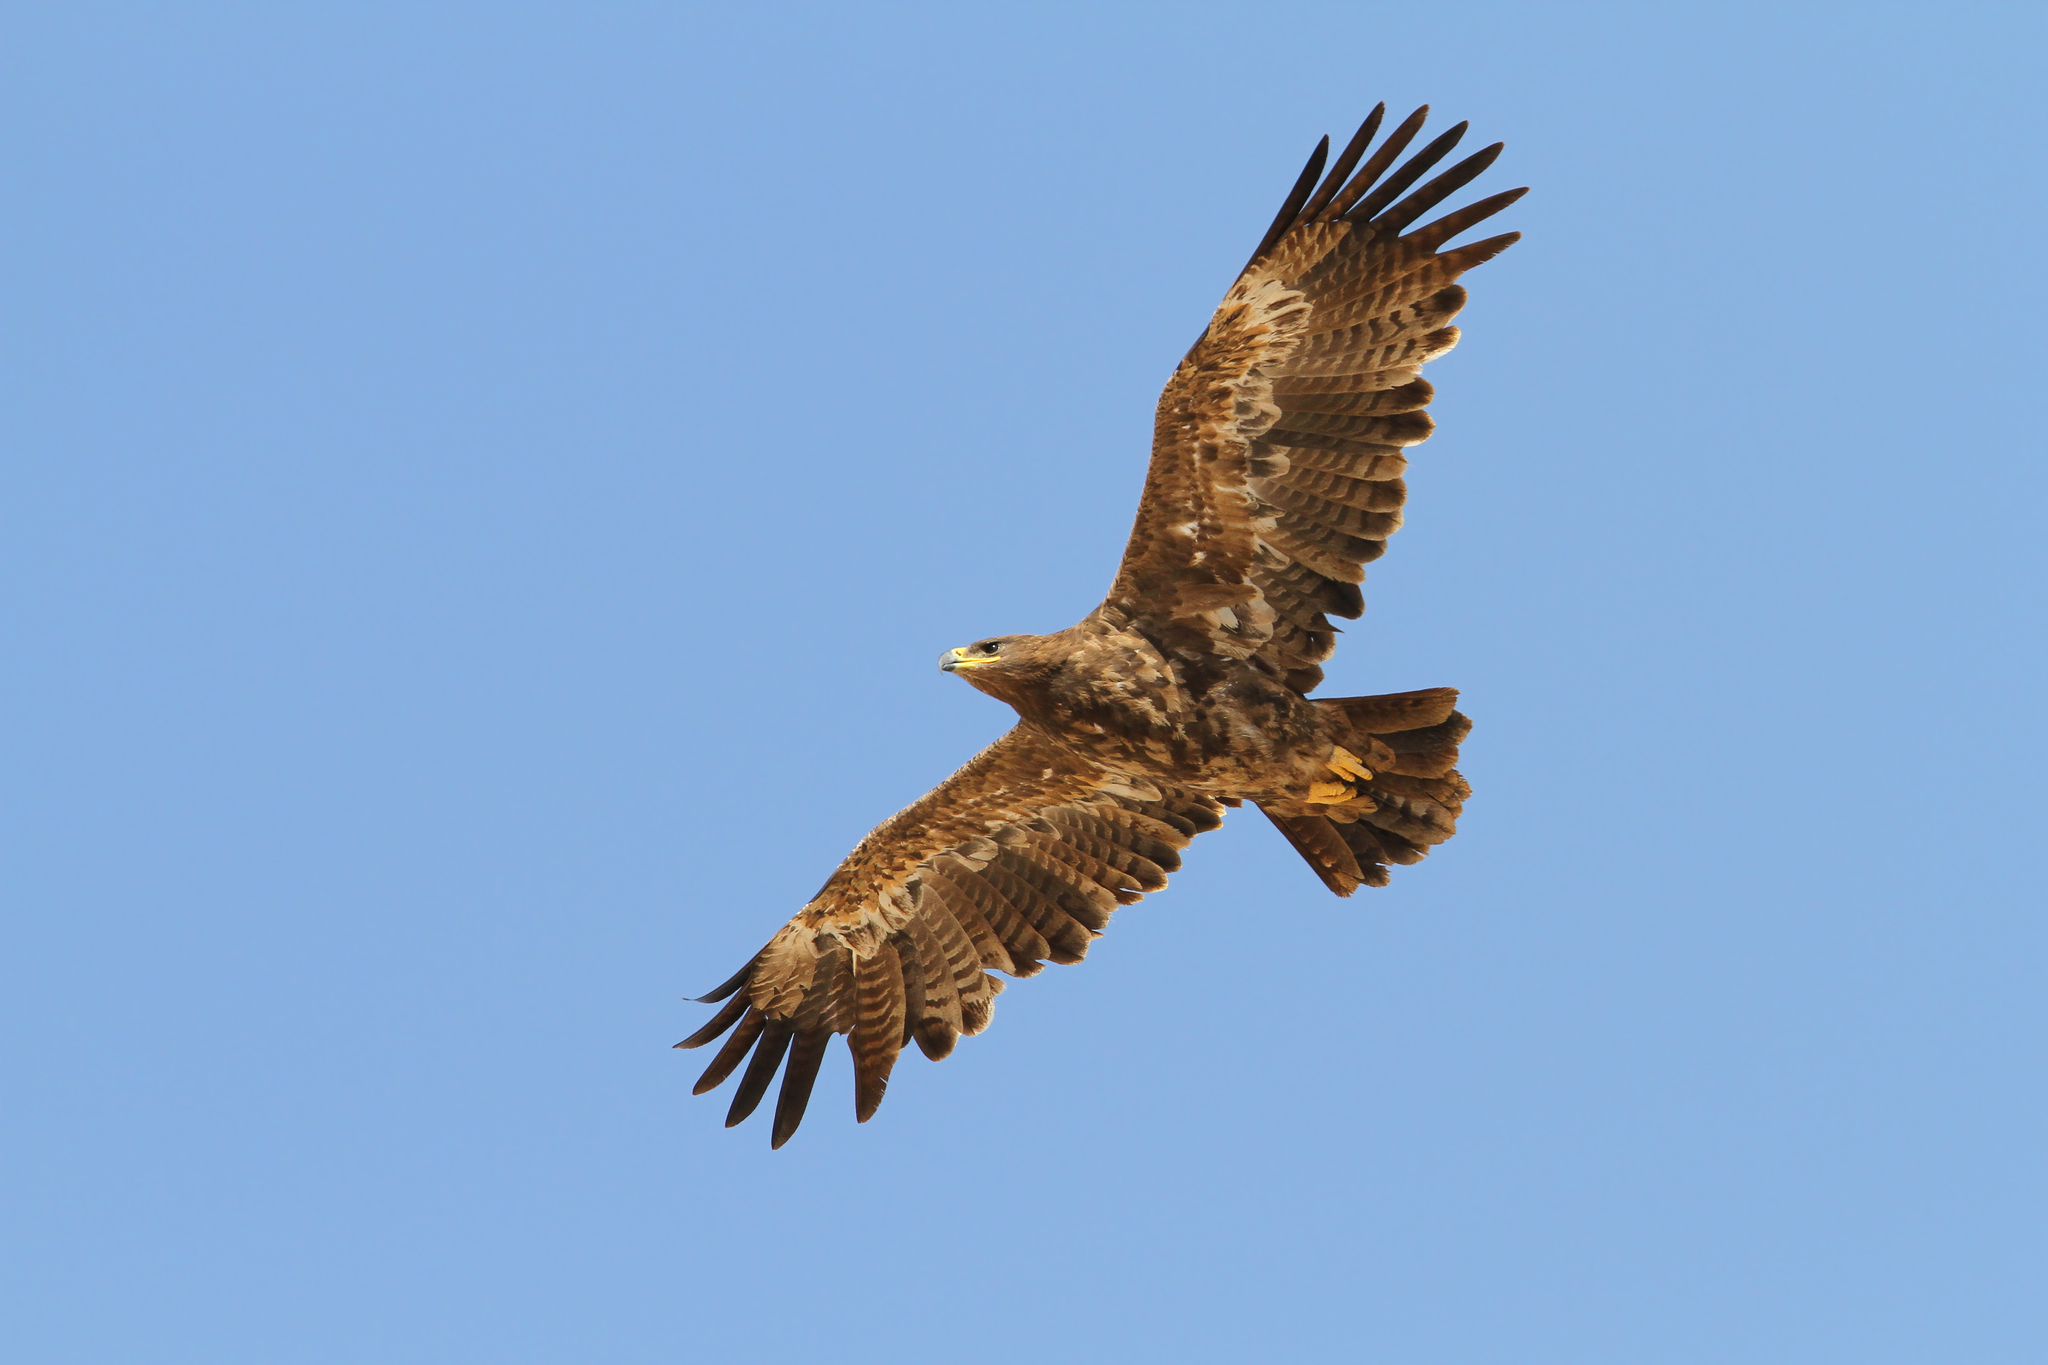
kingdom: Animalia
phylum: Chordata
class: Aves
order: Accipitriformes
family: Accipitridae
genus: Aquila
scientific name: Aquila nipalensis
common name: Steppe eagle
